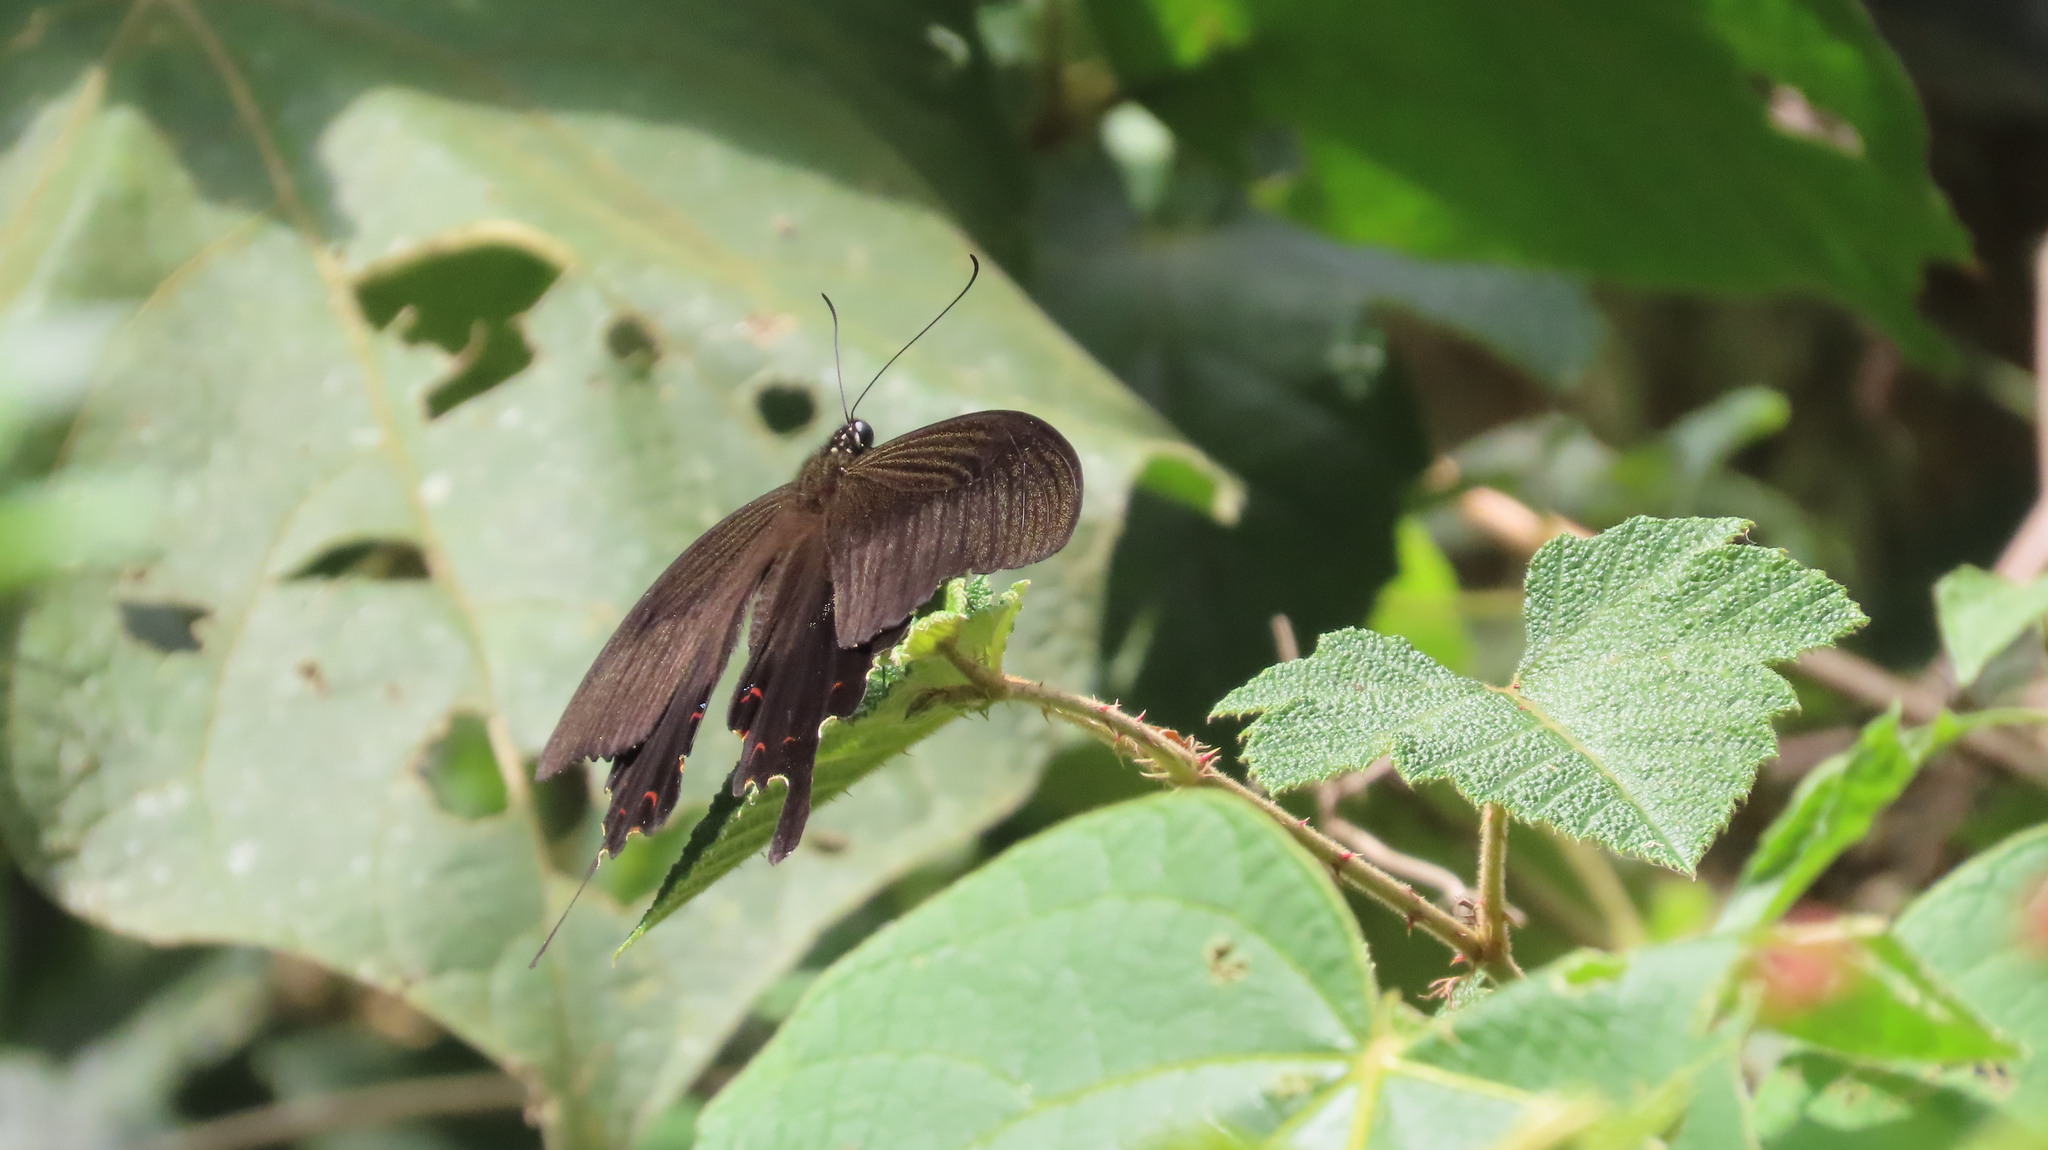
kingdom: Animalia
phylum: Arthropoda
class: Insecta
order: Lepidoptera
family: Papilionidae
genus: Papilio
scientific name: Papilio helenus
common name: Red helen
